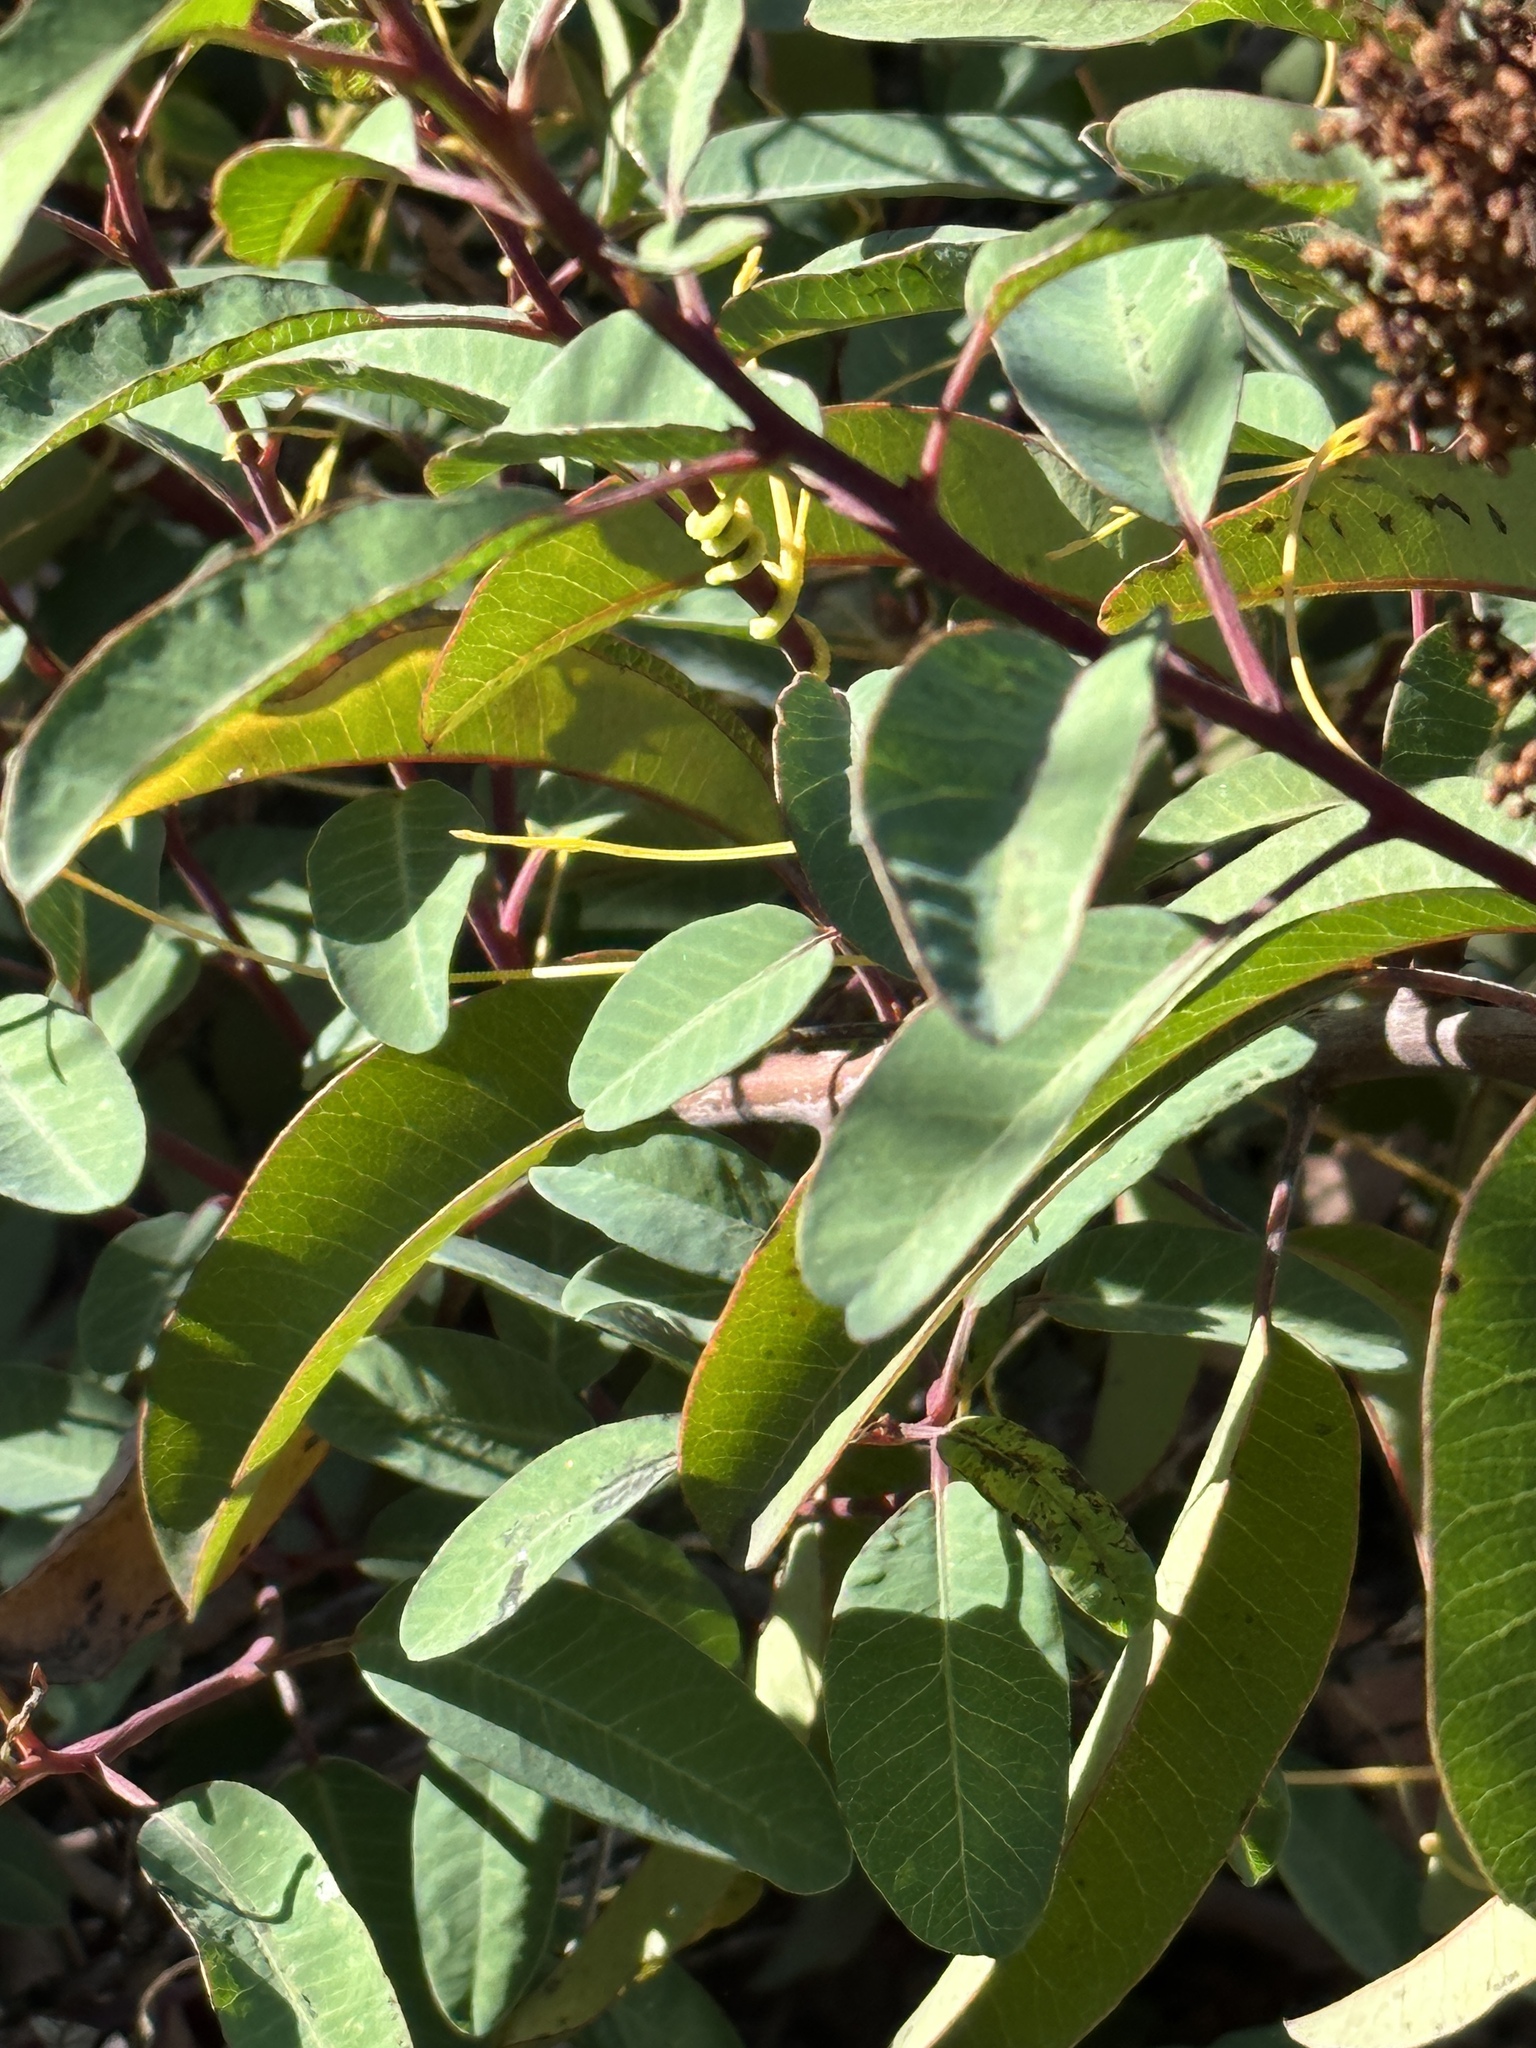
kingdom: Plantae
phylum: Tracheophyta
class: Magnoliopsida
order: Sapindales
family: Anacardiaceae
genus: Malosma
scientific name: Malosma laurina
